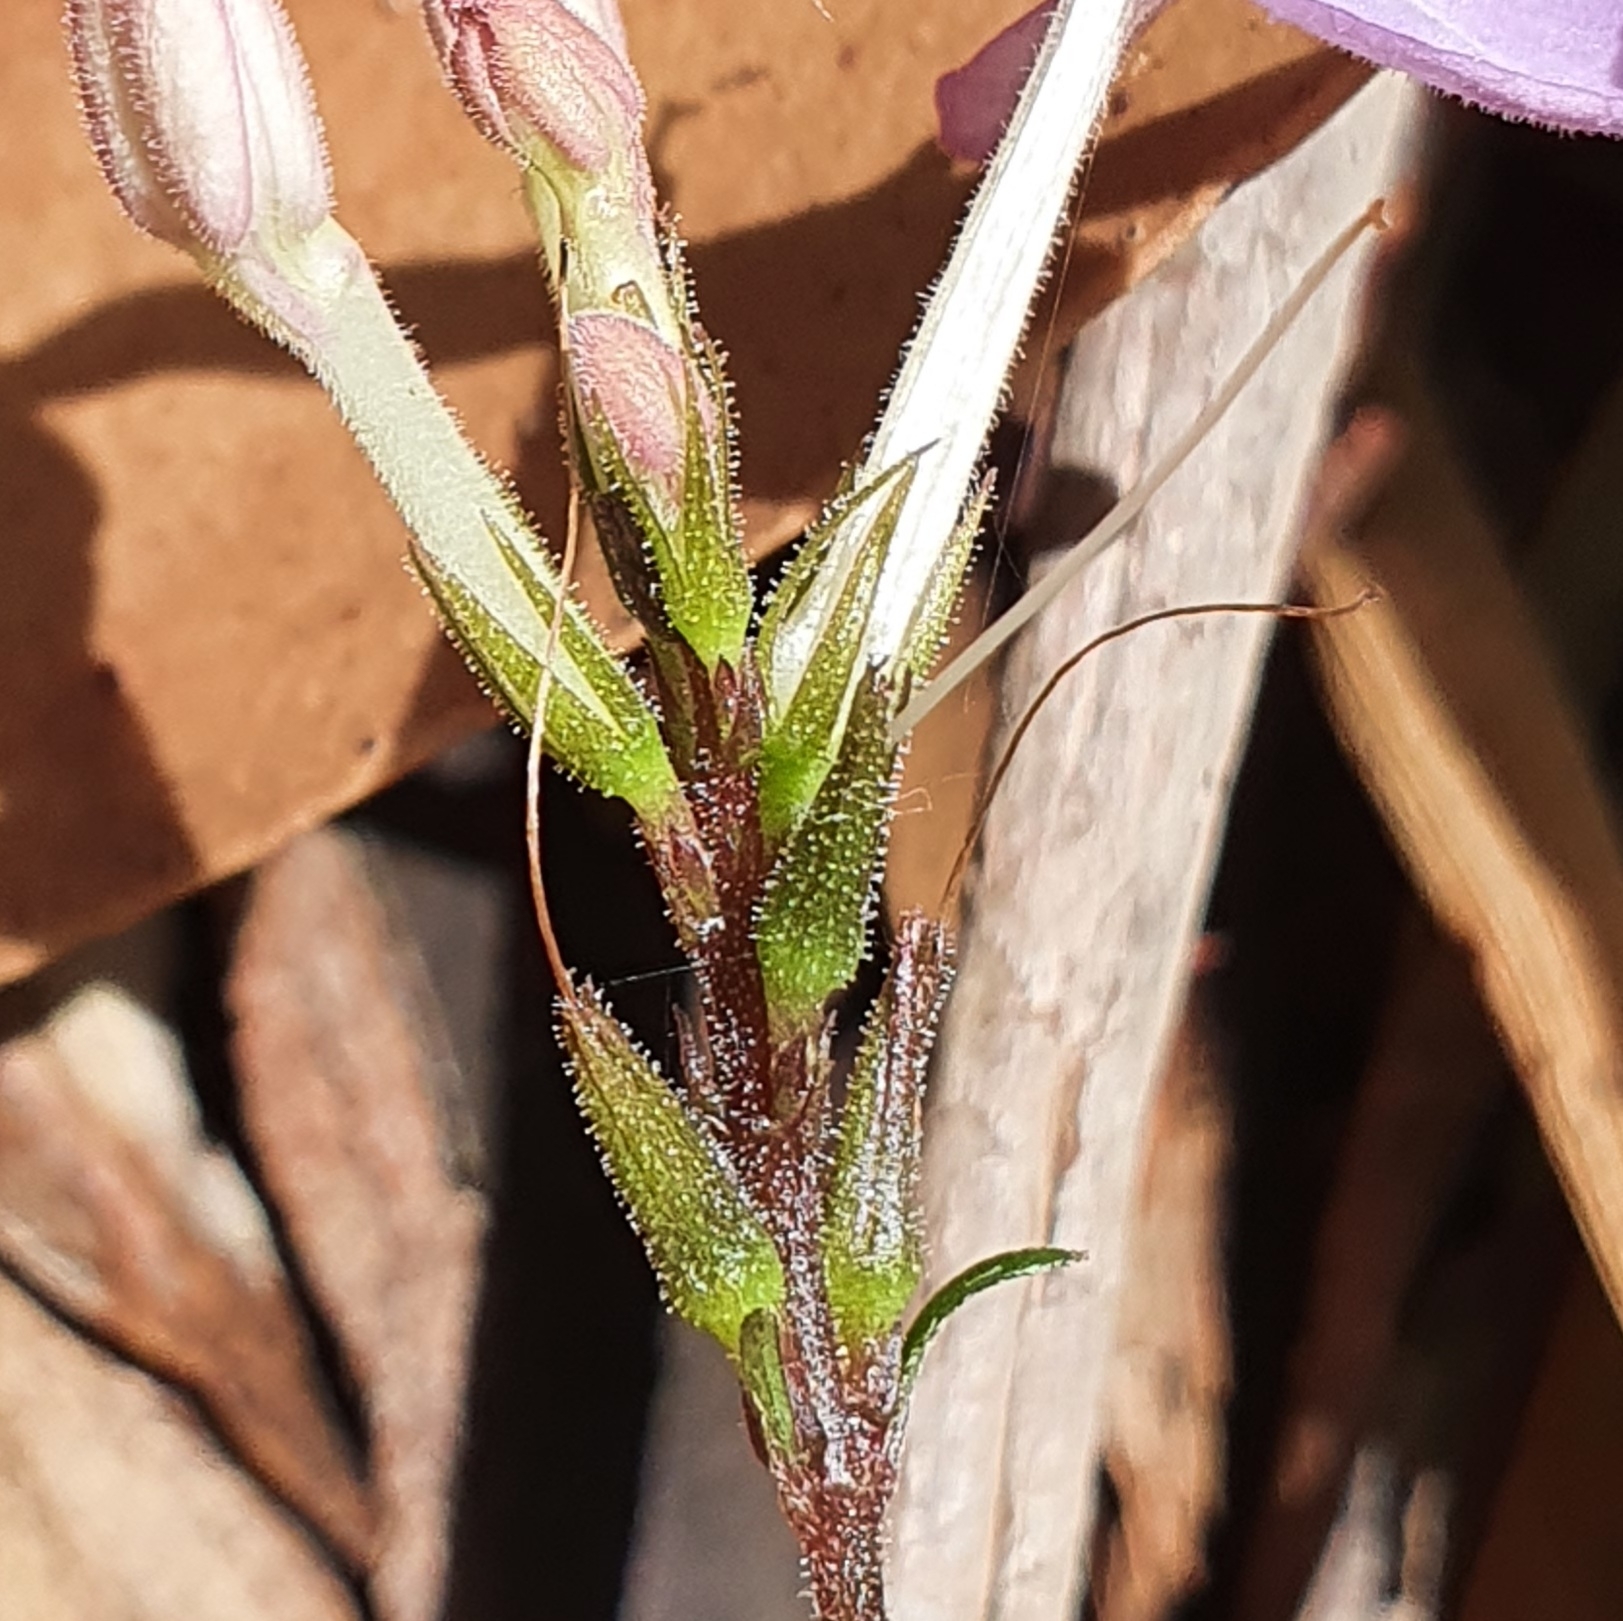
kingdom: Plantae
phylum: Tracheophyta
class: Magnoliopsida
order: Lamiales
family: Acanthaceae
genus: Pseuderanthemum
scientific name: Pseuderanthemum variabile
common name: Night and afternoon
